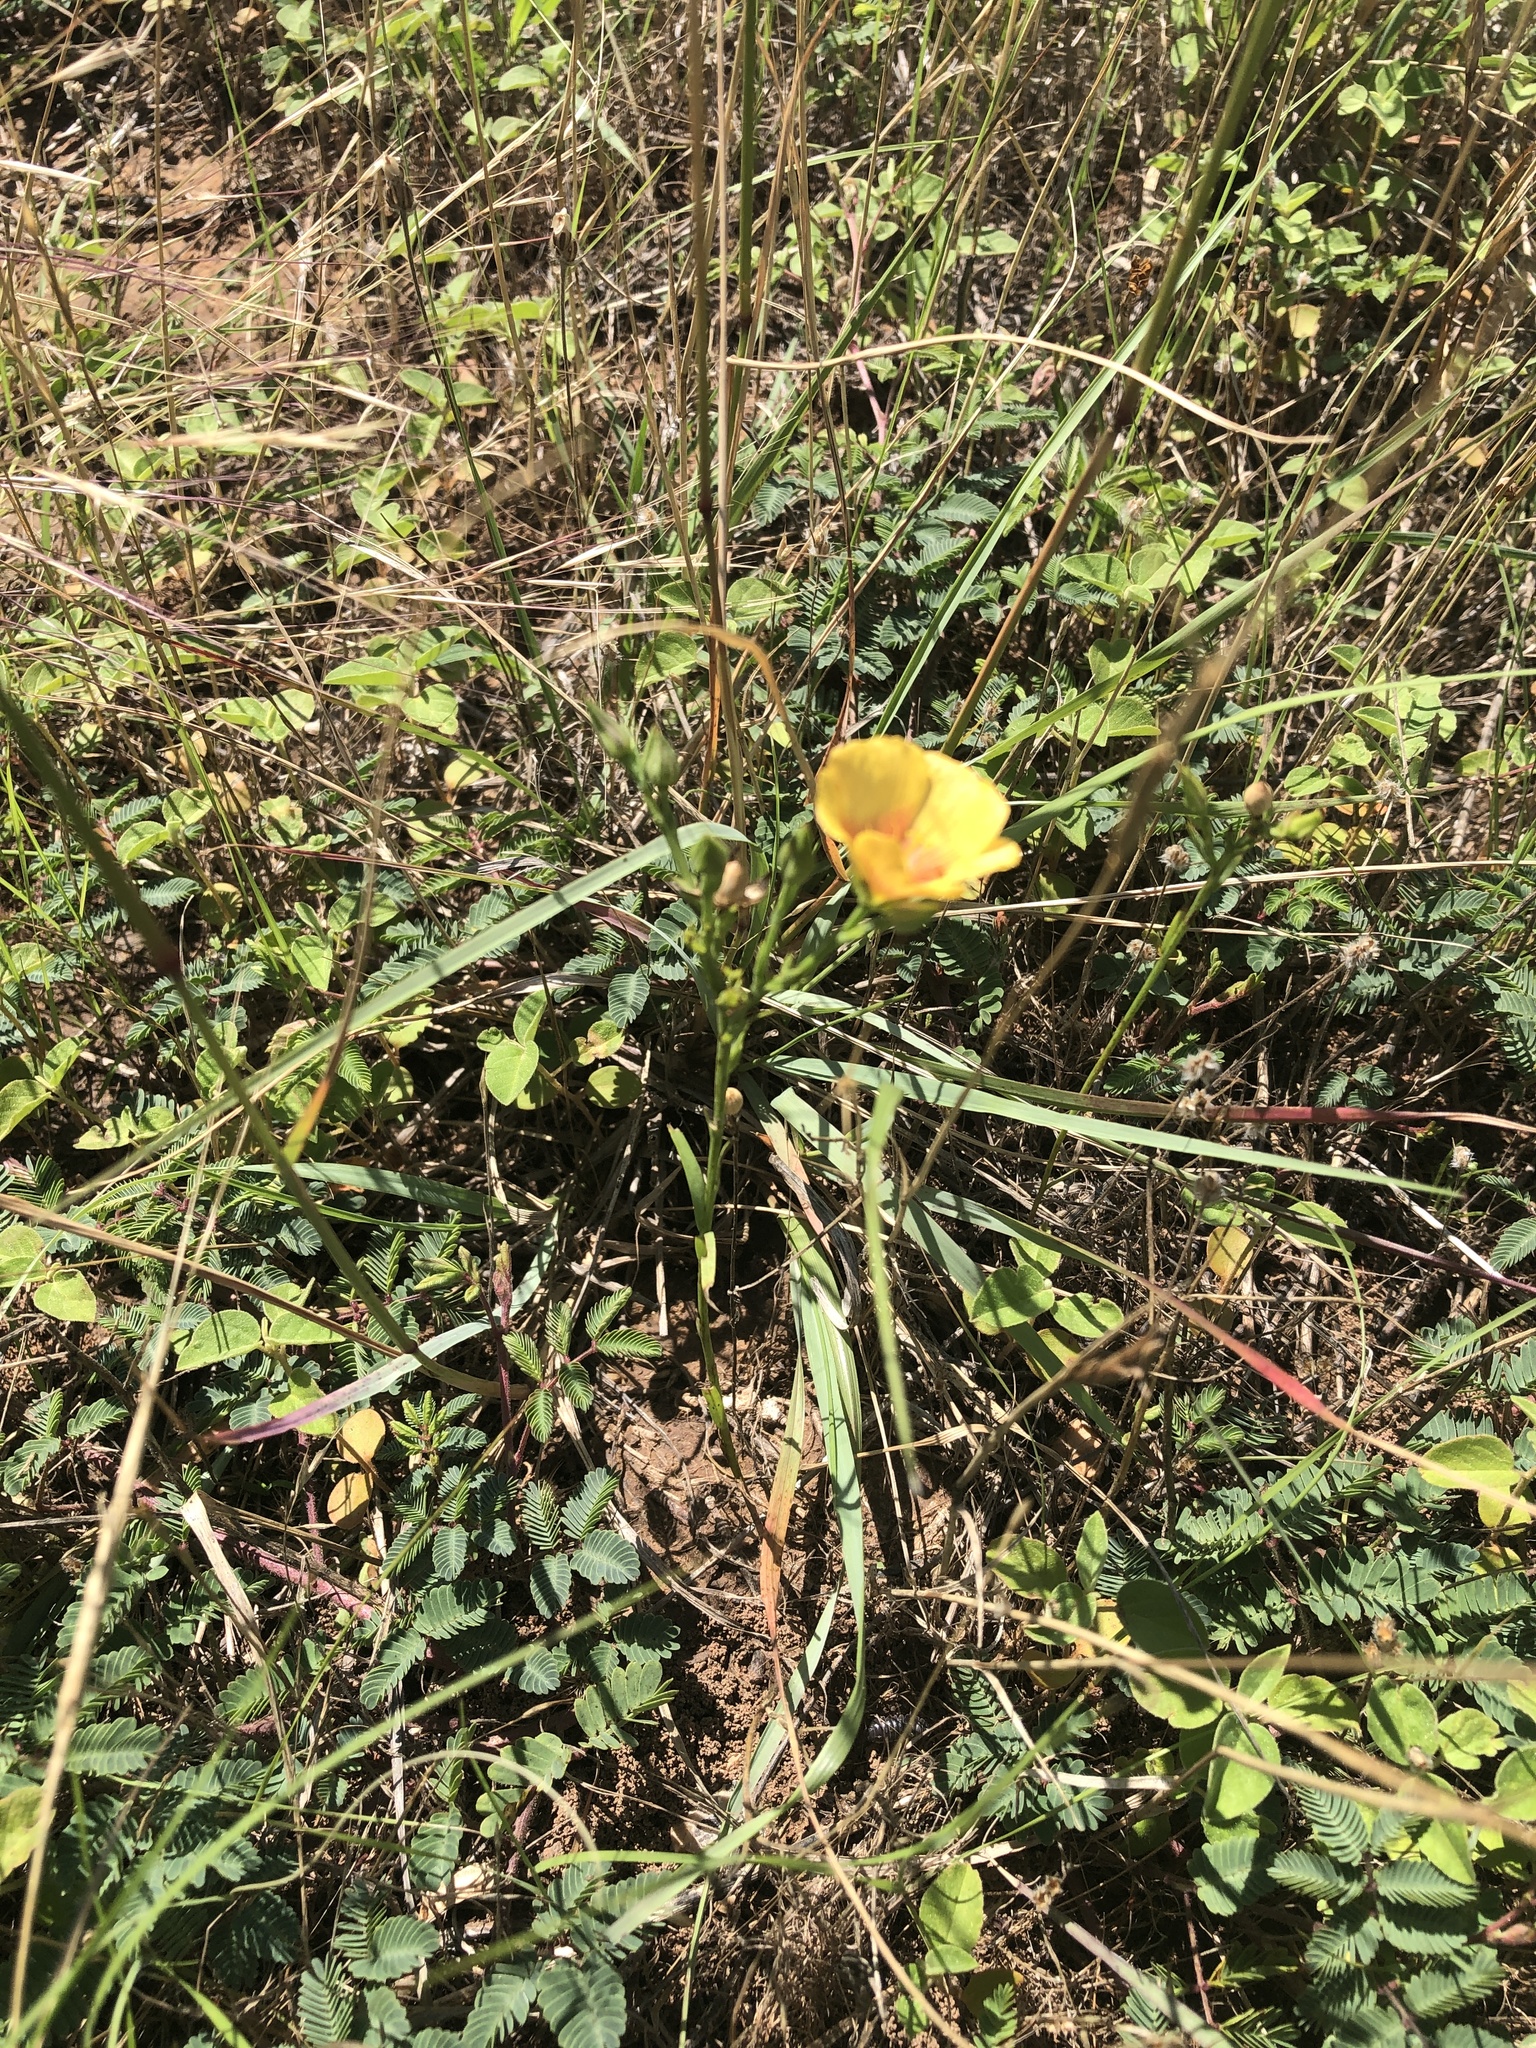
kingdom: Plantae
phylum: Tracheophyta
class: Magnoliopsida
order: Malpighiales
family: Linaceae
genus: Linum
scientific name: Linum rigidum
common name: Stiff-stem flax
